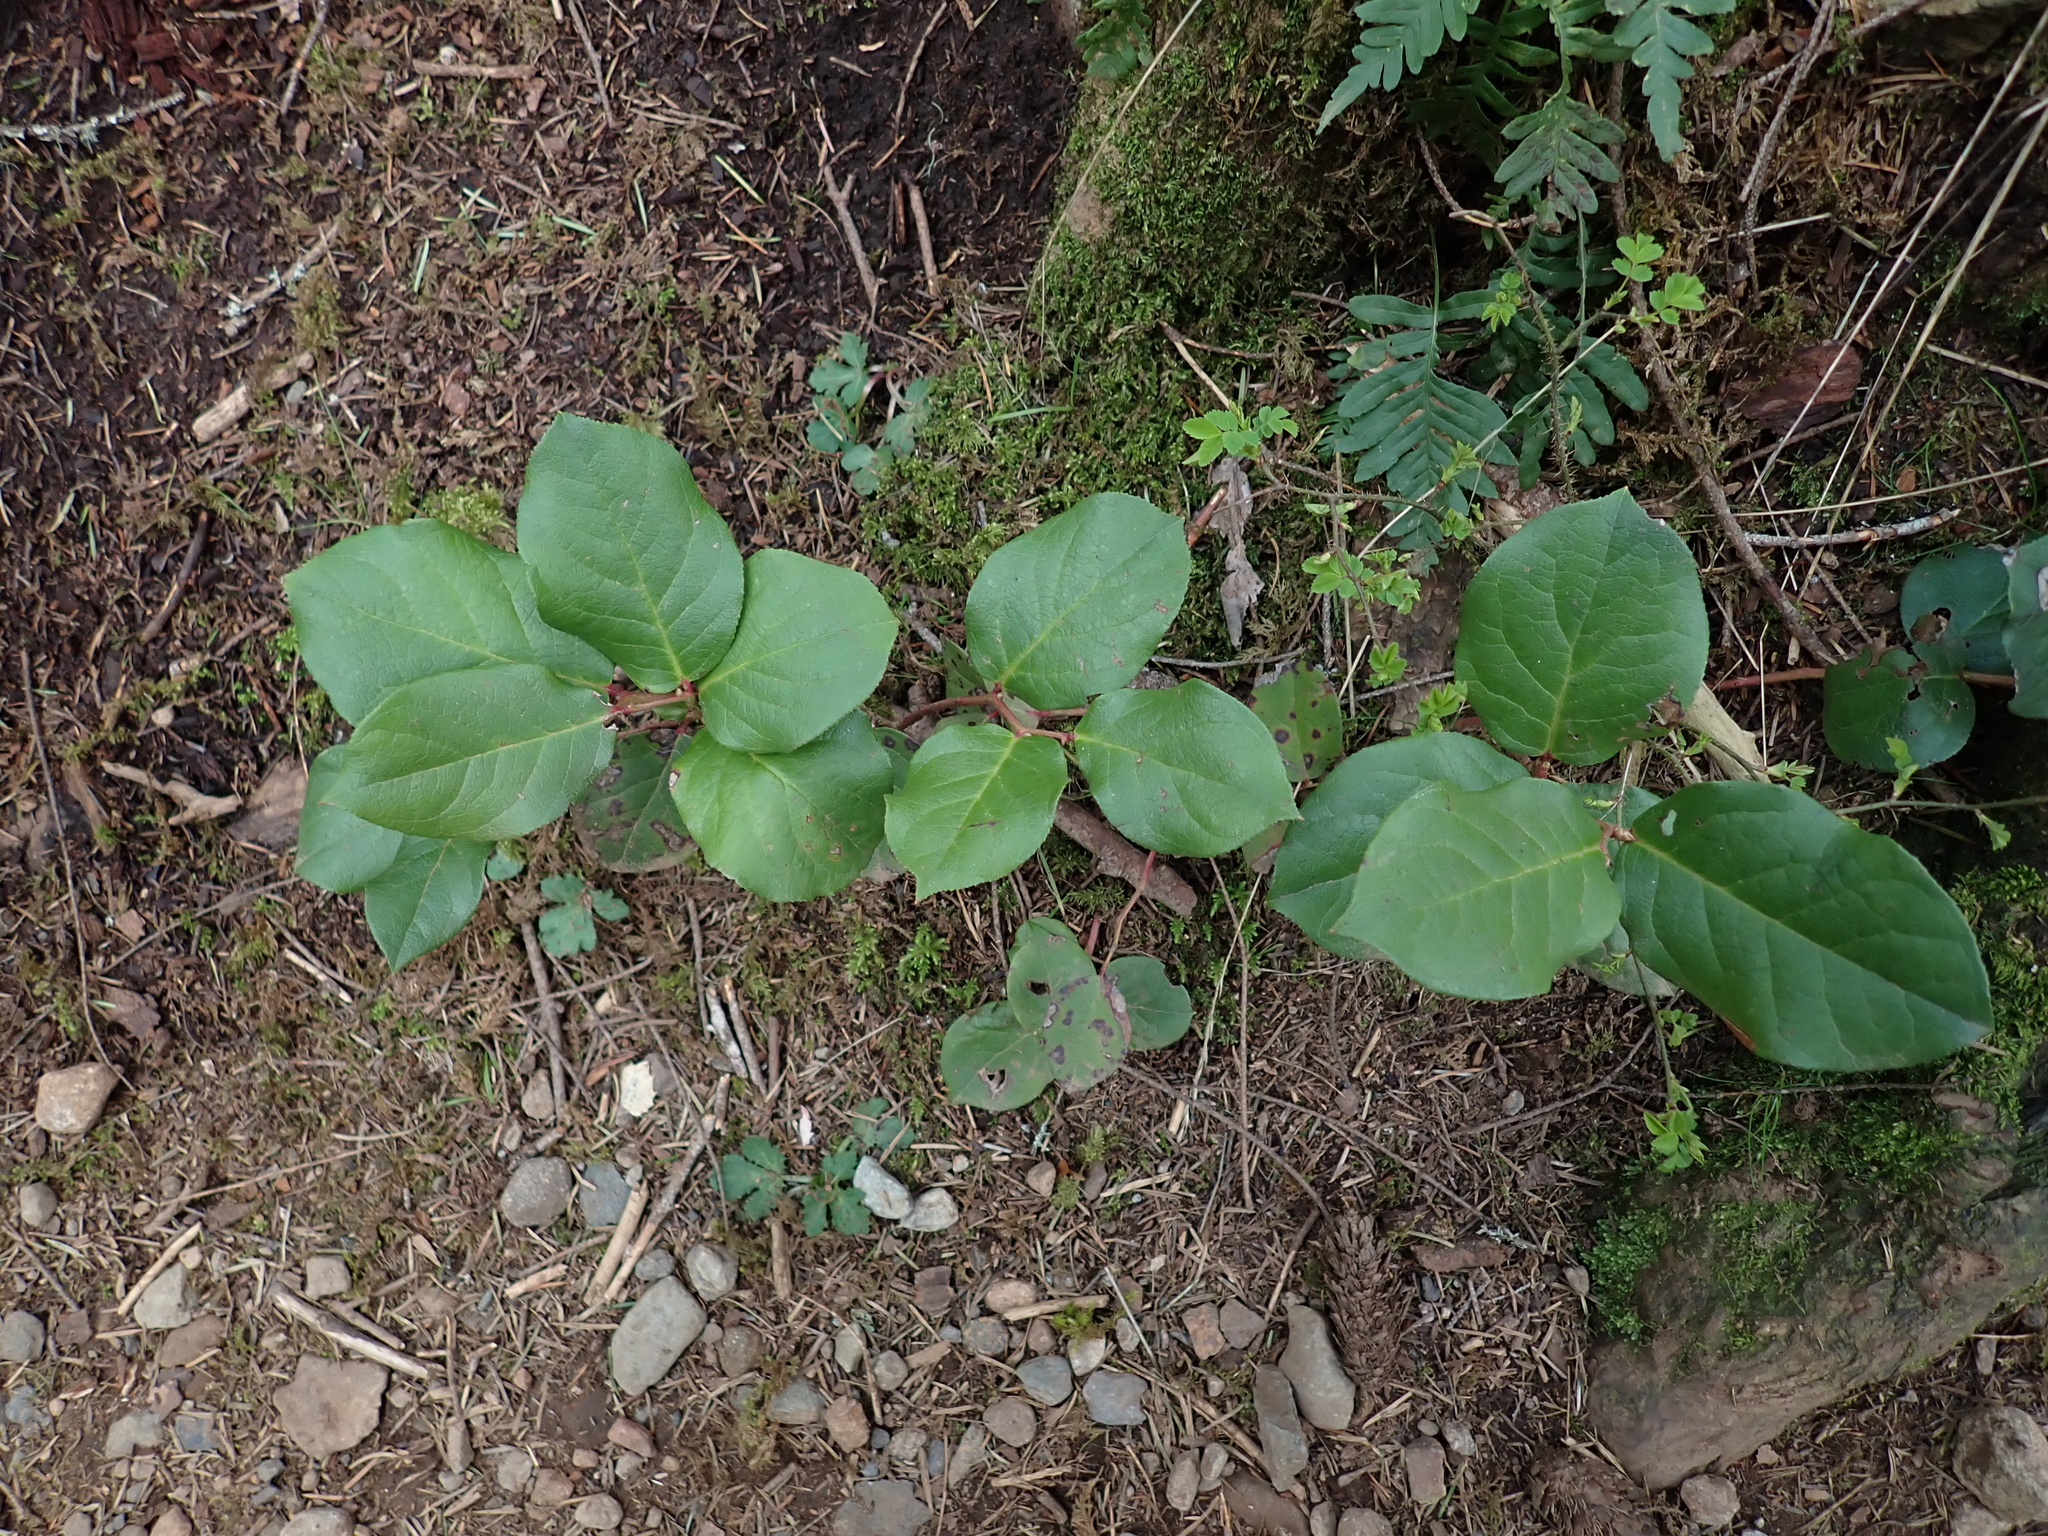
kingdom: Plantae
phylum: Tracheophyta
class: Magnoliopsida
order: Ericales
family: Ericaceae
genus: Gaultheria
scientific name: Gaultheria shallon
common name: Shallon
